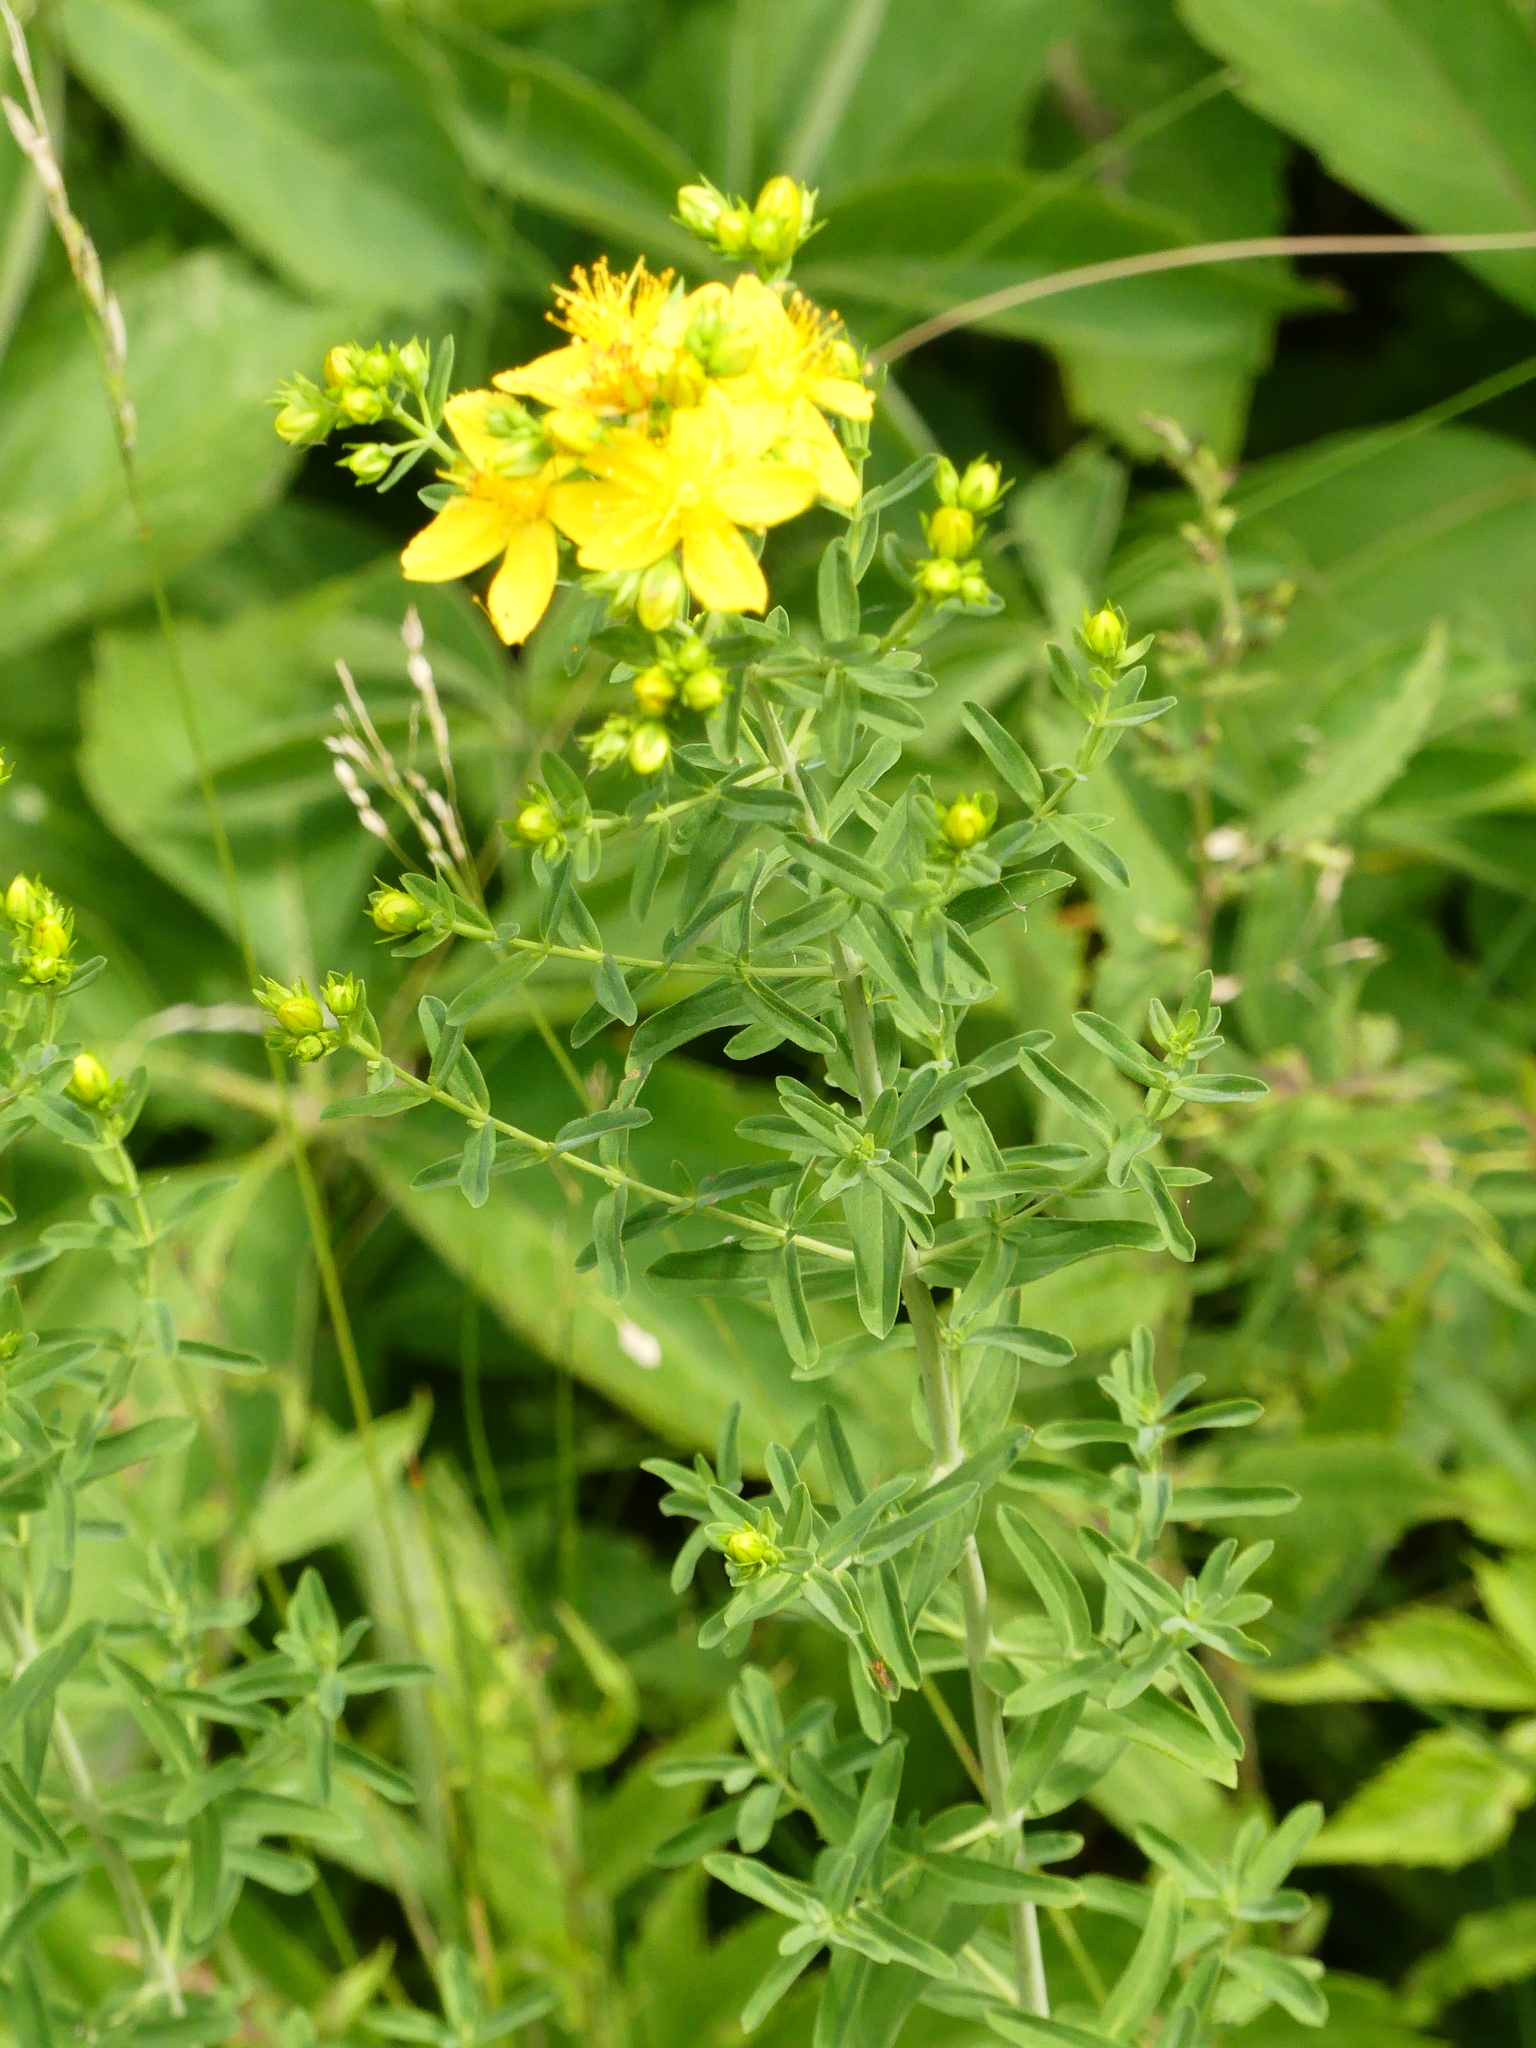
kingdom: Plantae
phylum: Tracheophyta
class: Magnoliopsida
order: Malpighiales
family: Hypericaceae
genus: Hypericum
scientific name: Hypericum perforatum
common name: Common st. johnswort
